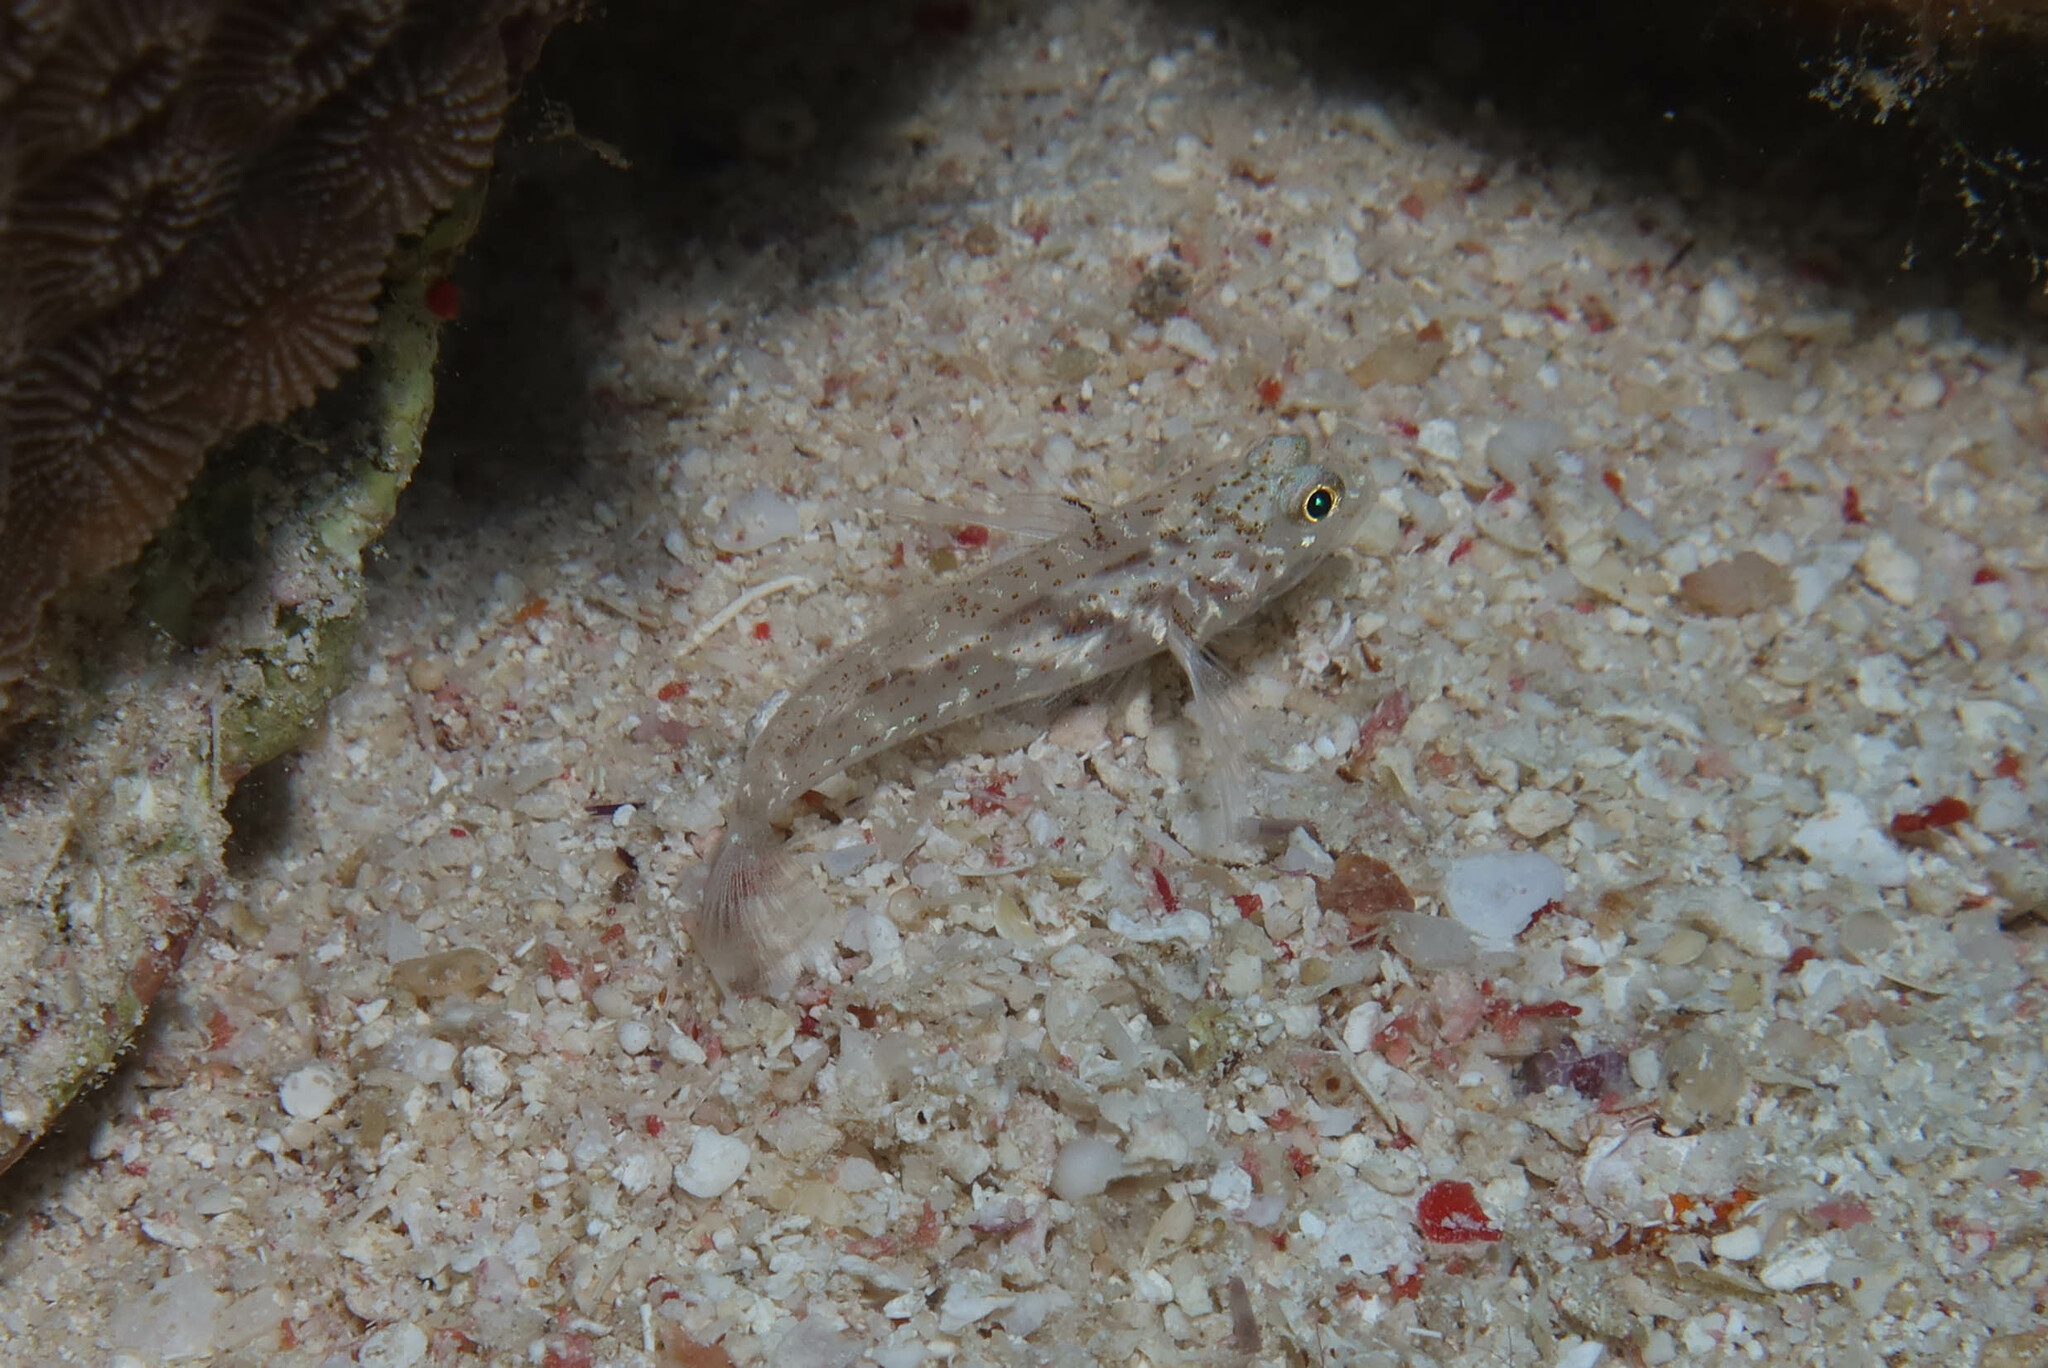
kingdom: Animalia
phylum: Chordata
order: Perciformes
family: Gobiidae
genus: Fusigobius
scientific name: Fusigobius humerosus
